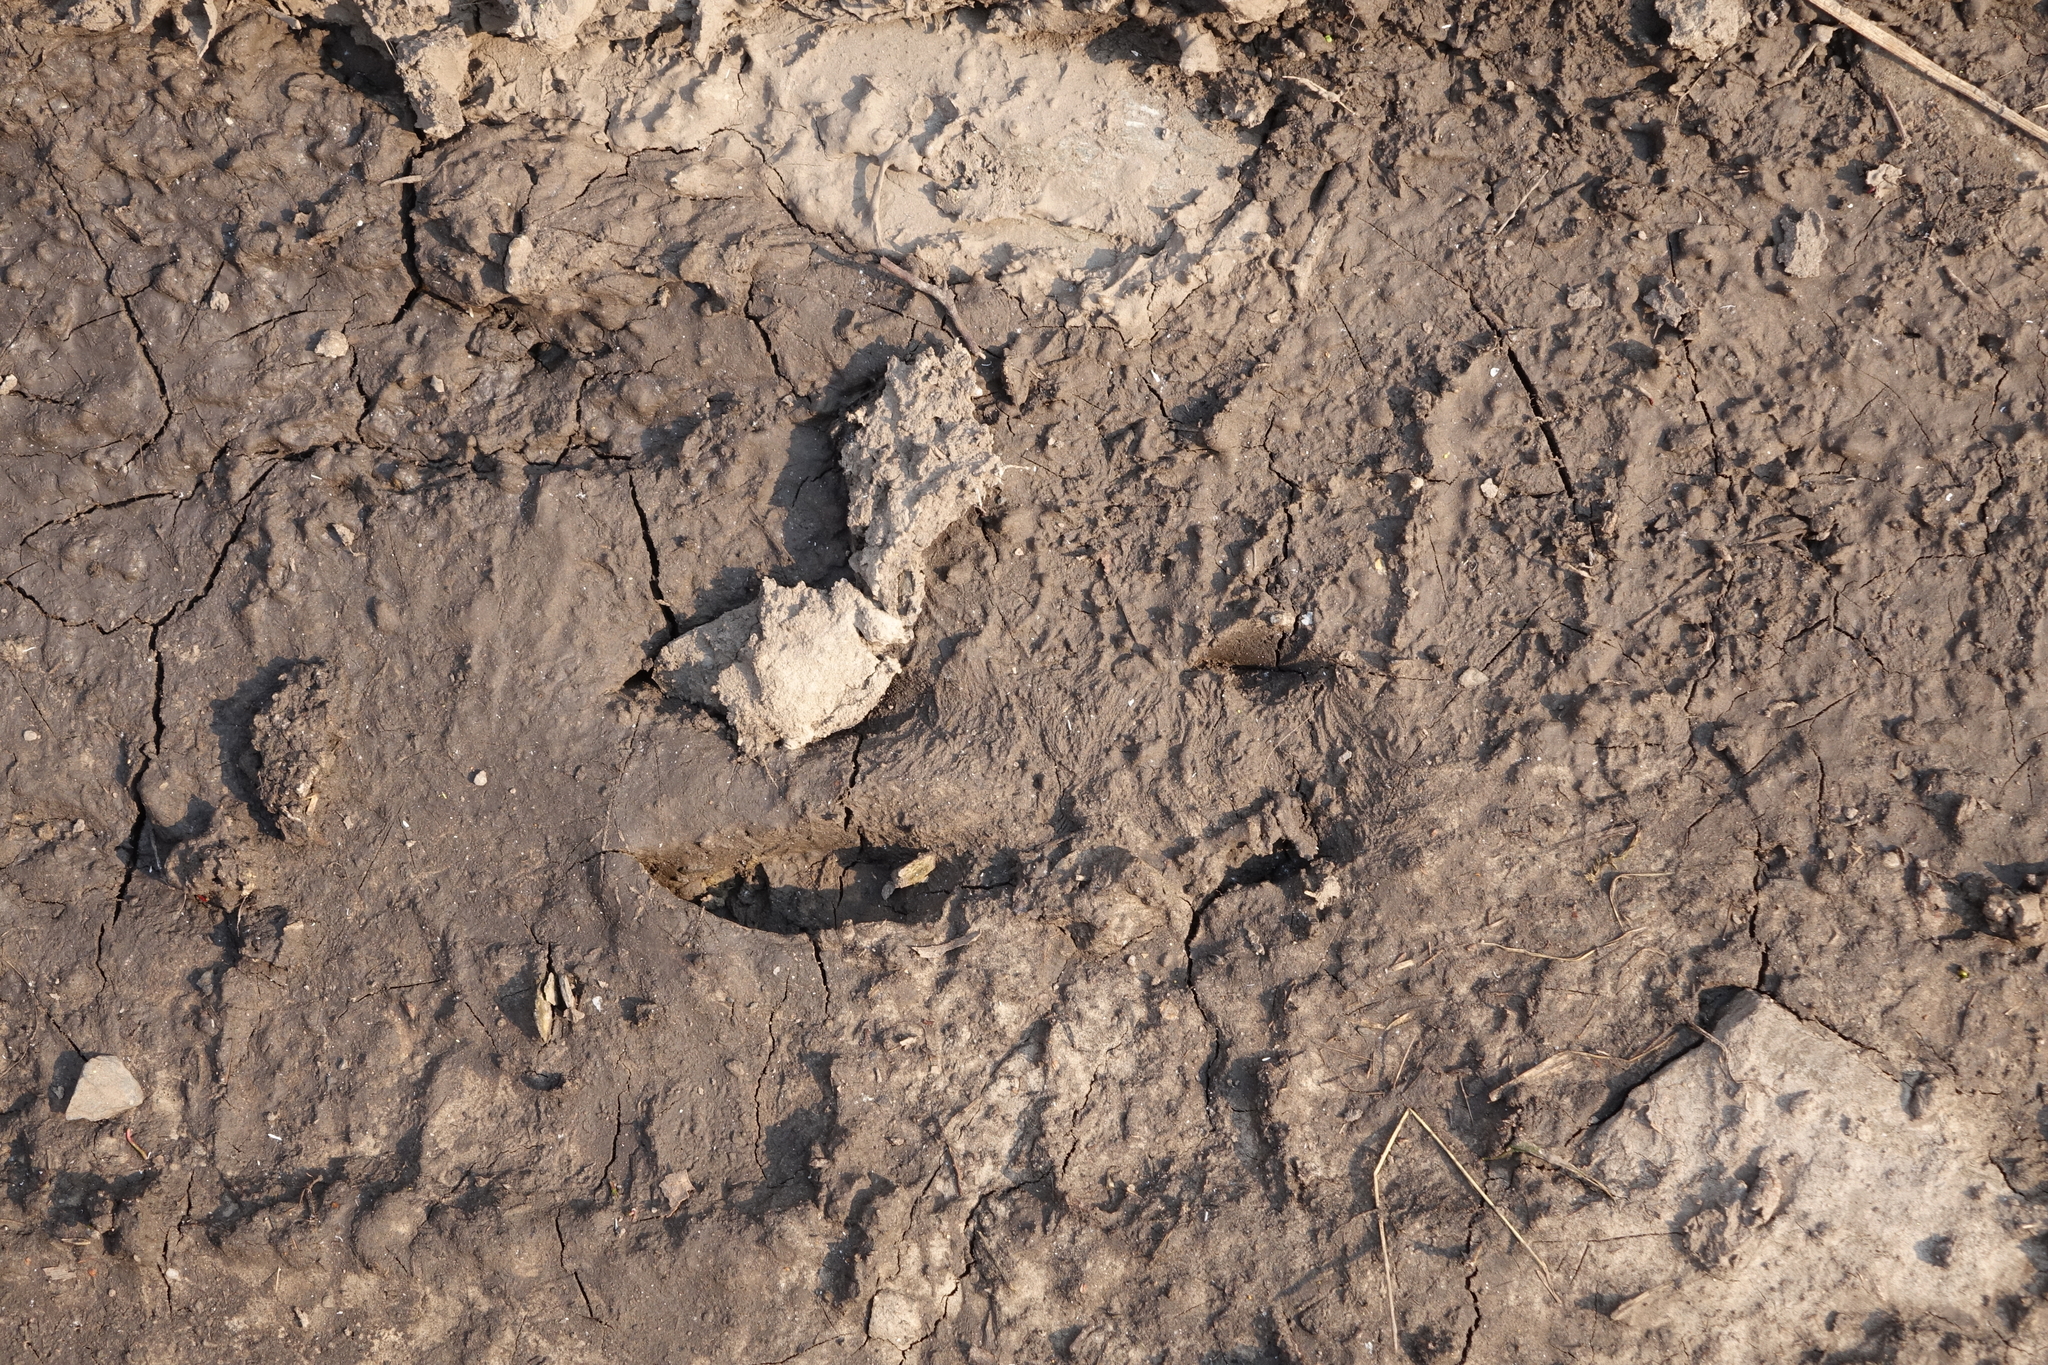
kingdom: Animalia
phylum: Chordata
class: Mammalia
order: Artiodactyla
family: Cervidae
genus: Capreolus
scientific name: Capreolus pygargus
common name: Siberian roe
